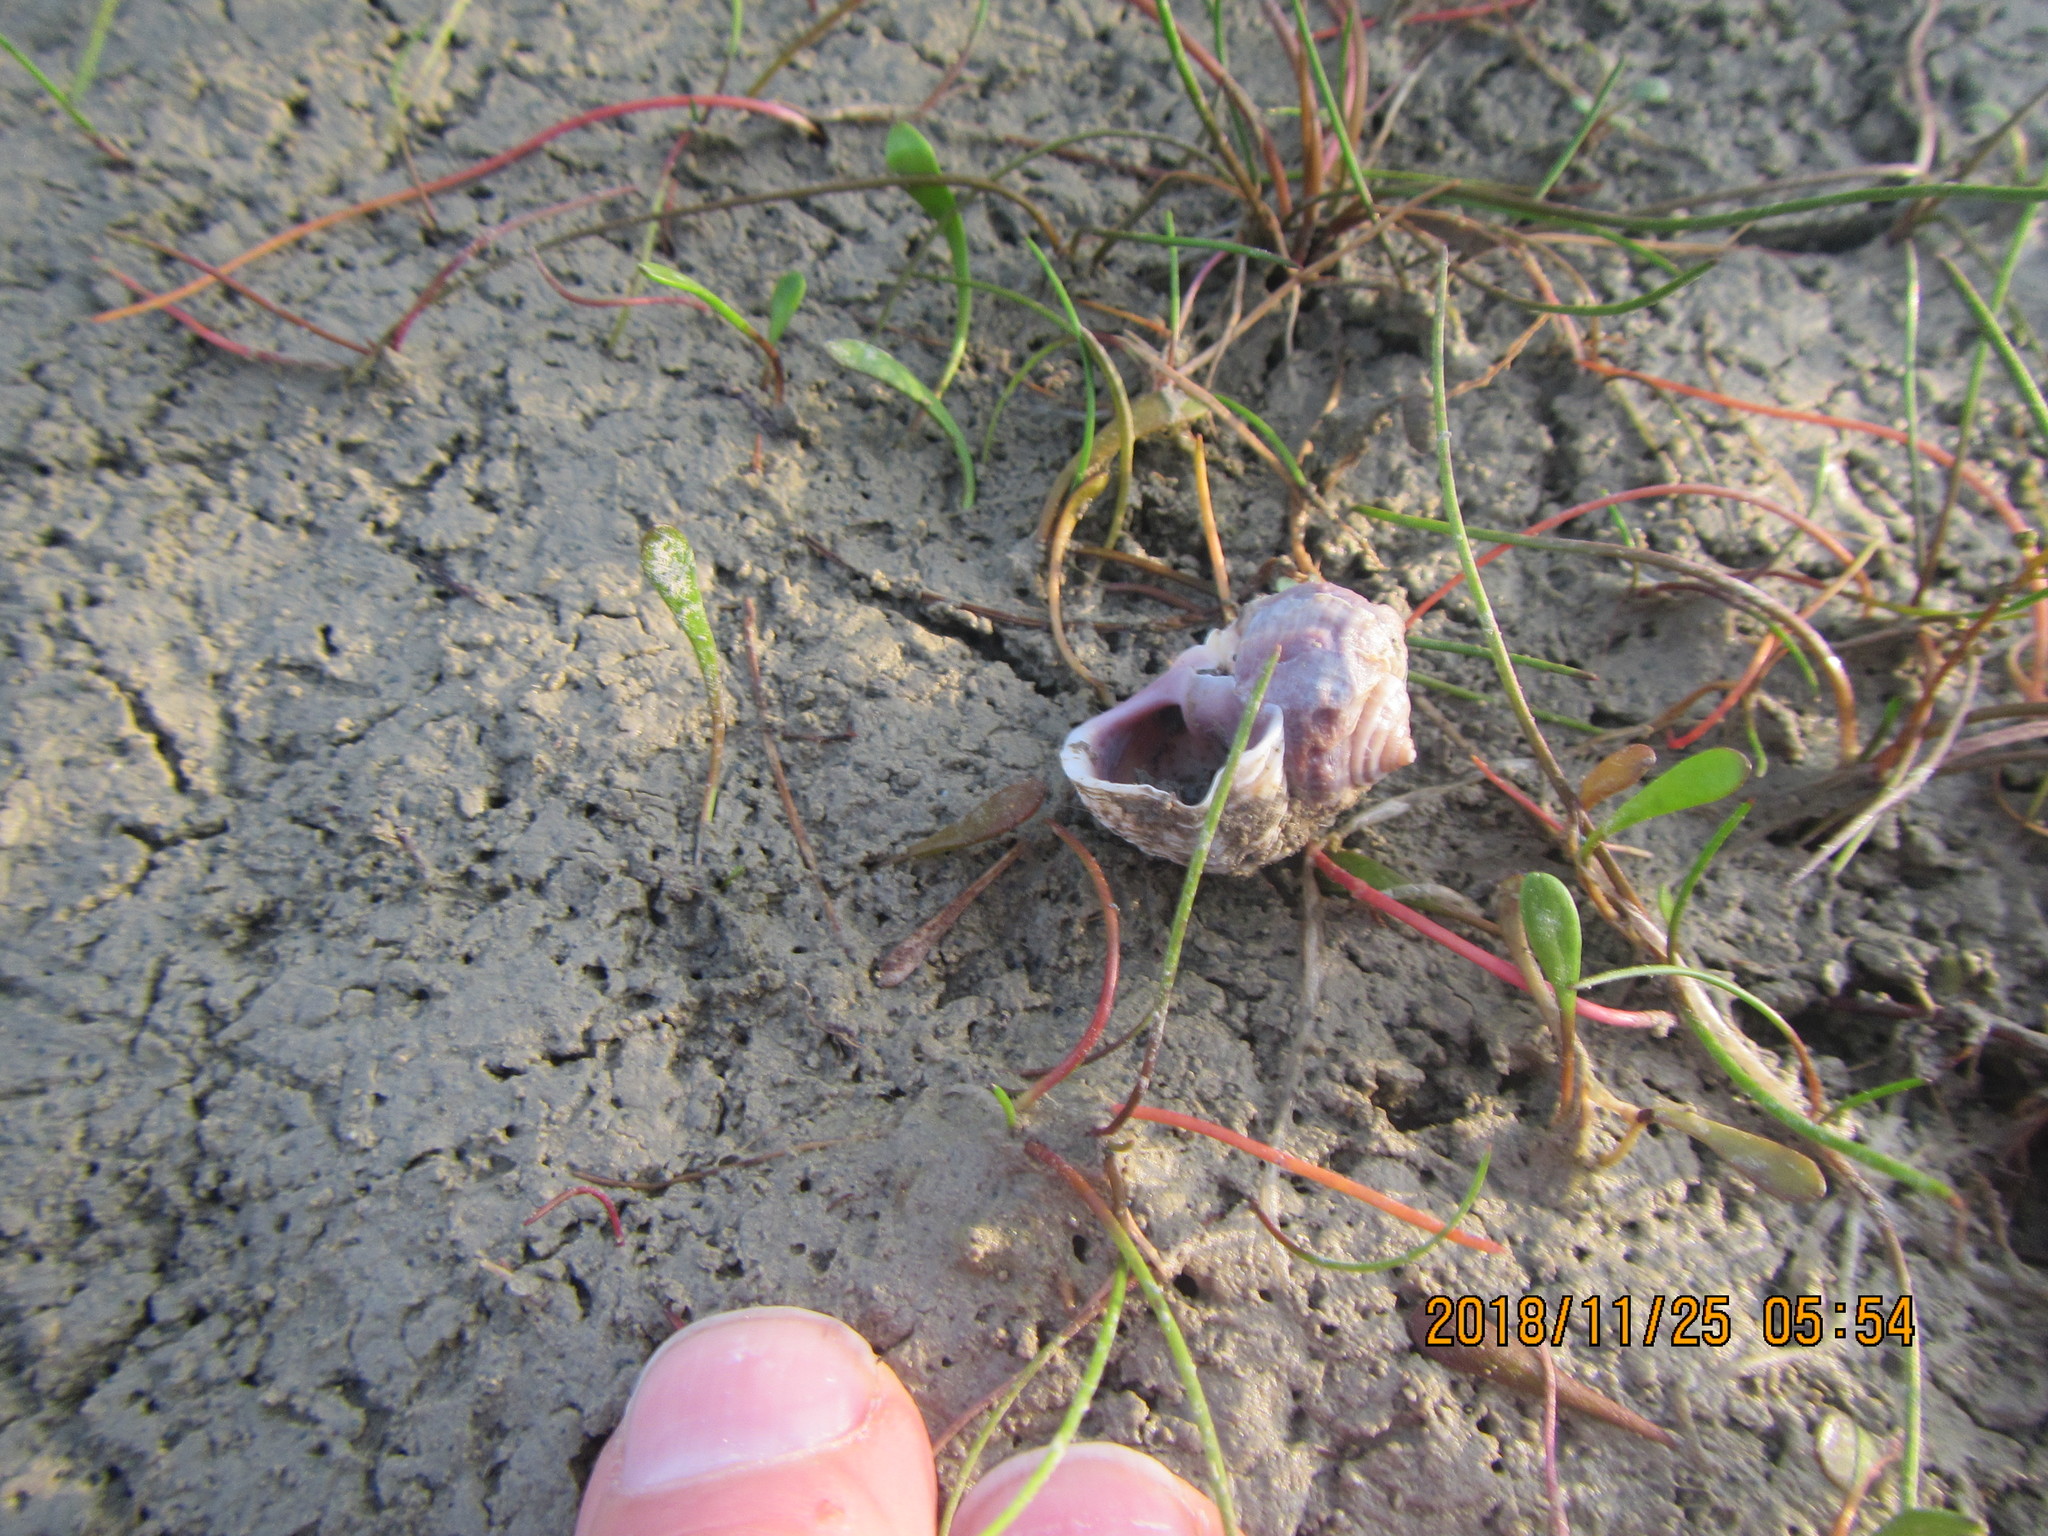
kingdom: Animalia
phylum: Mollusca
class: Gastropoda
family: Amphibolidae
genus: Amphibola
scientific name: Amphibola crenata
